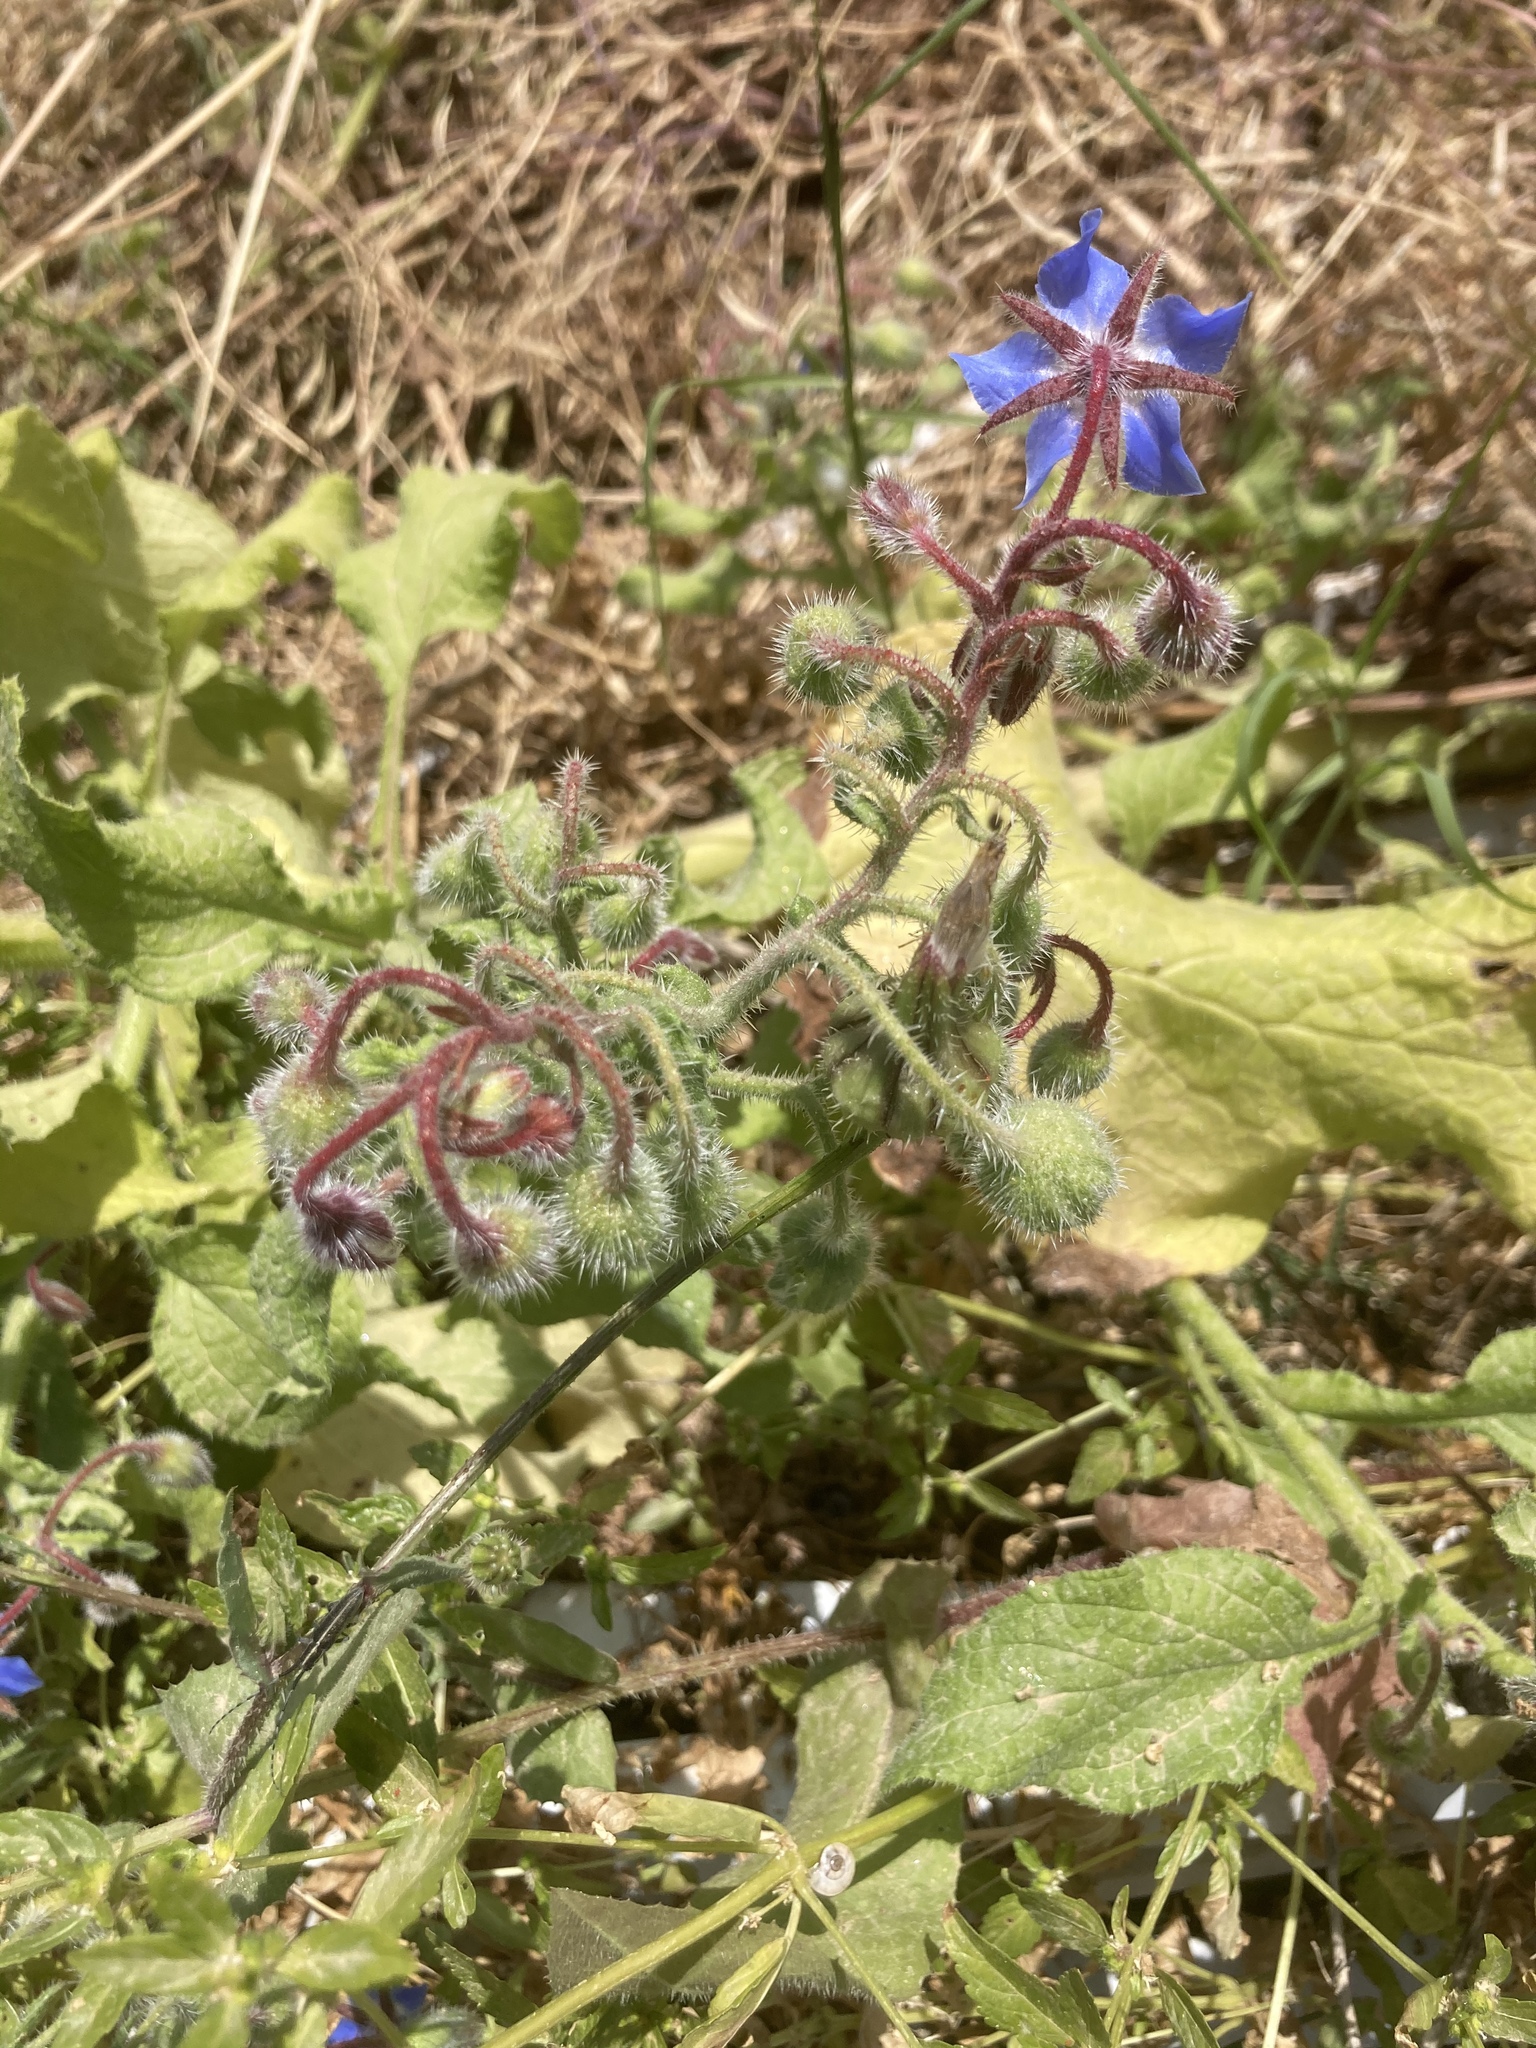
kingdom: Plantae
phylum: Tracheophyta
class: Magnoliopsida
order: Boraginales
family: Boraginaceae
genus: Borago
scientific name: Borago officinalis
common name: Borage
